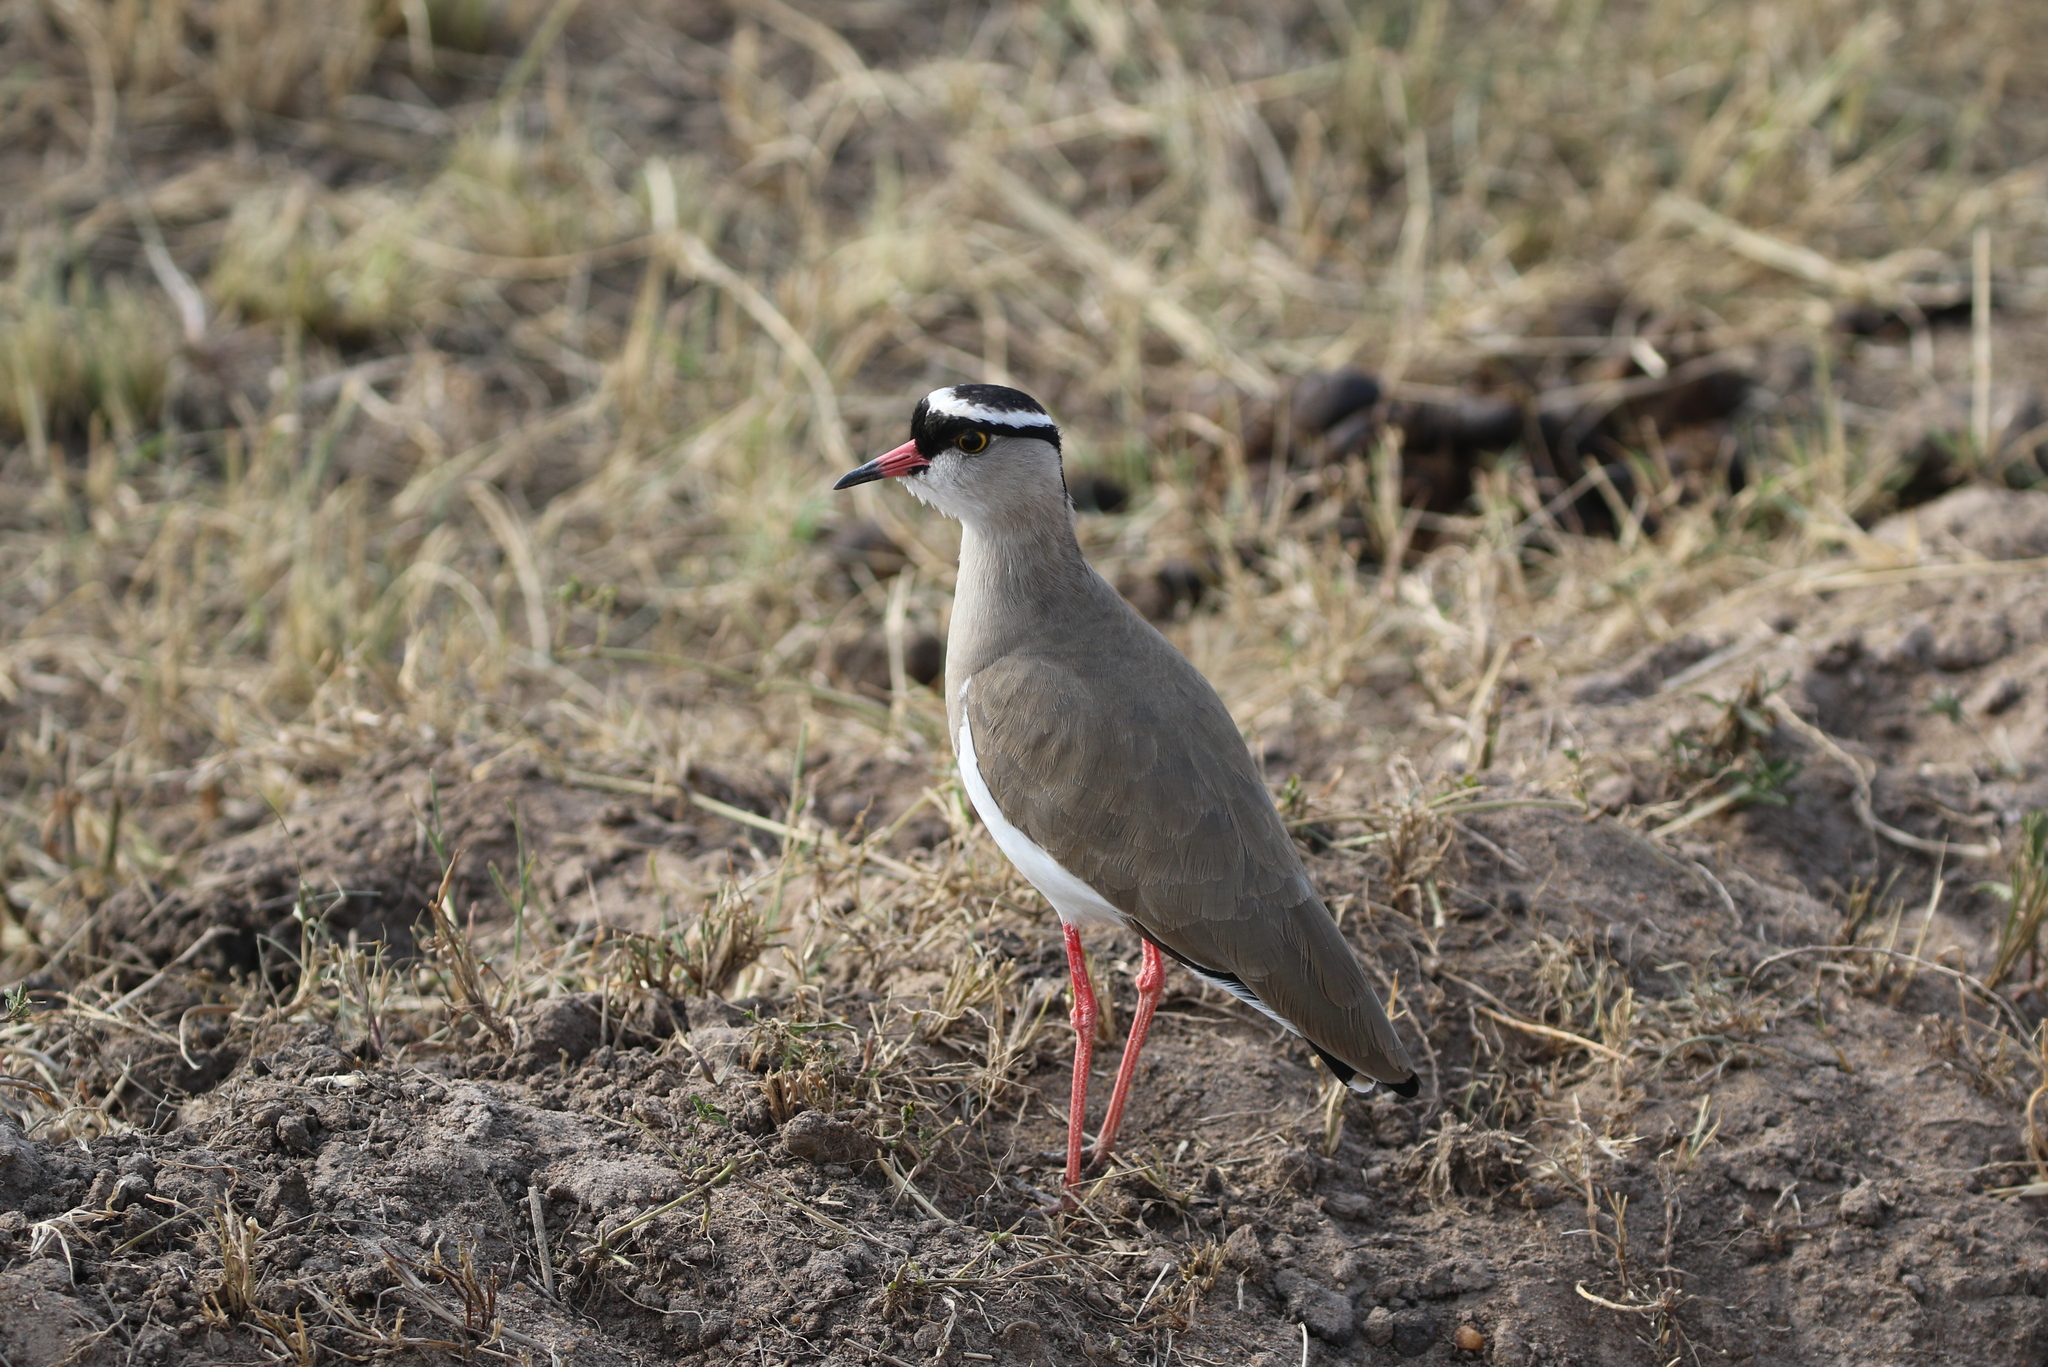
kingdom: Animalia
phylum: Chordata
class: Aves
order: Charadriiformes
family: Charadriidae
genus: Vanellus
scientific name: Vanellus coronatus
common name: Crowned lapwing
